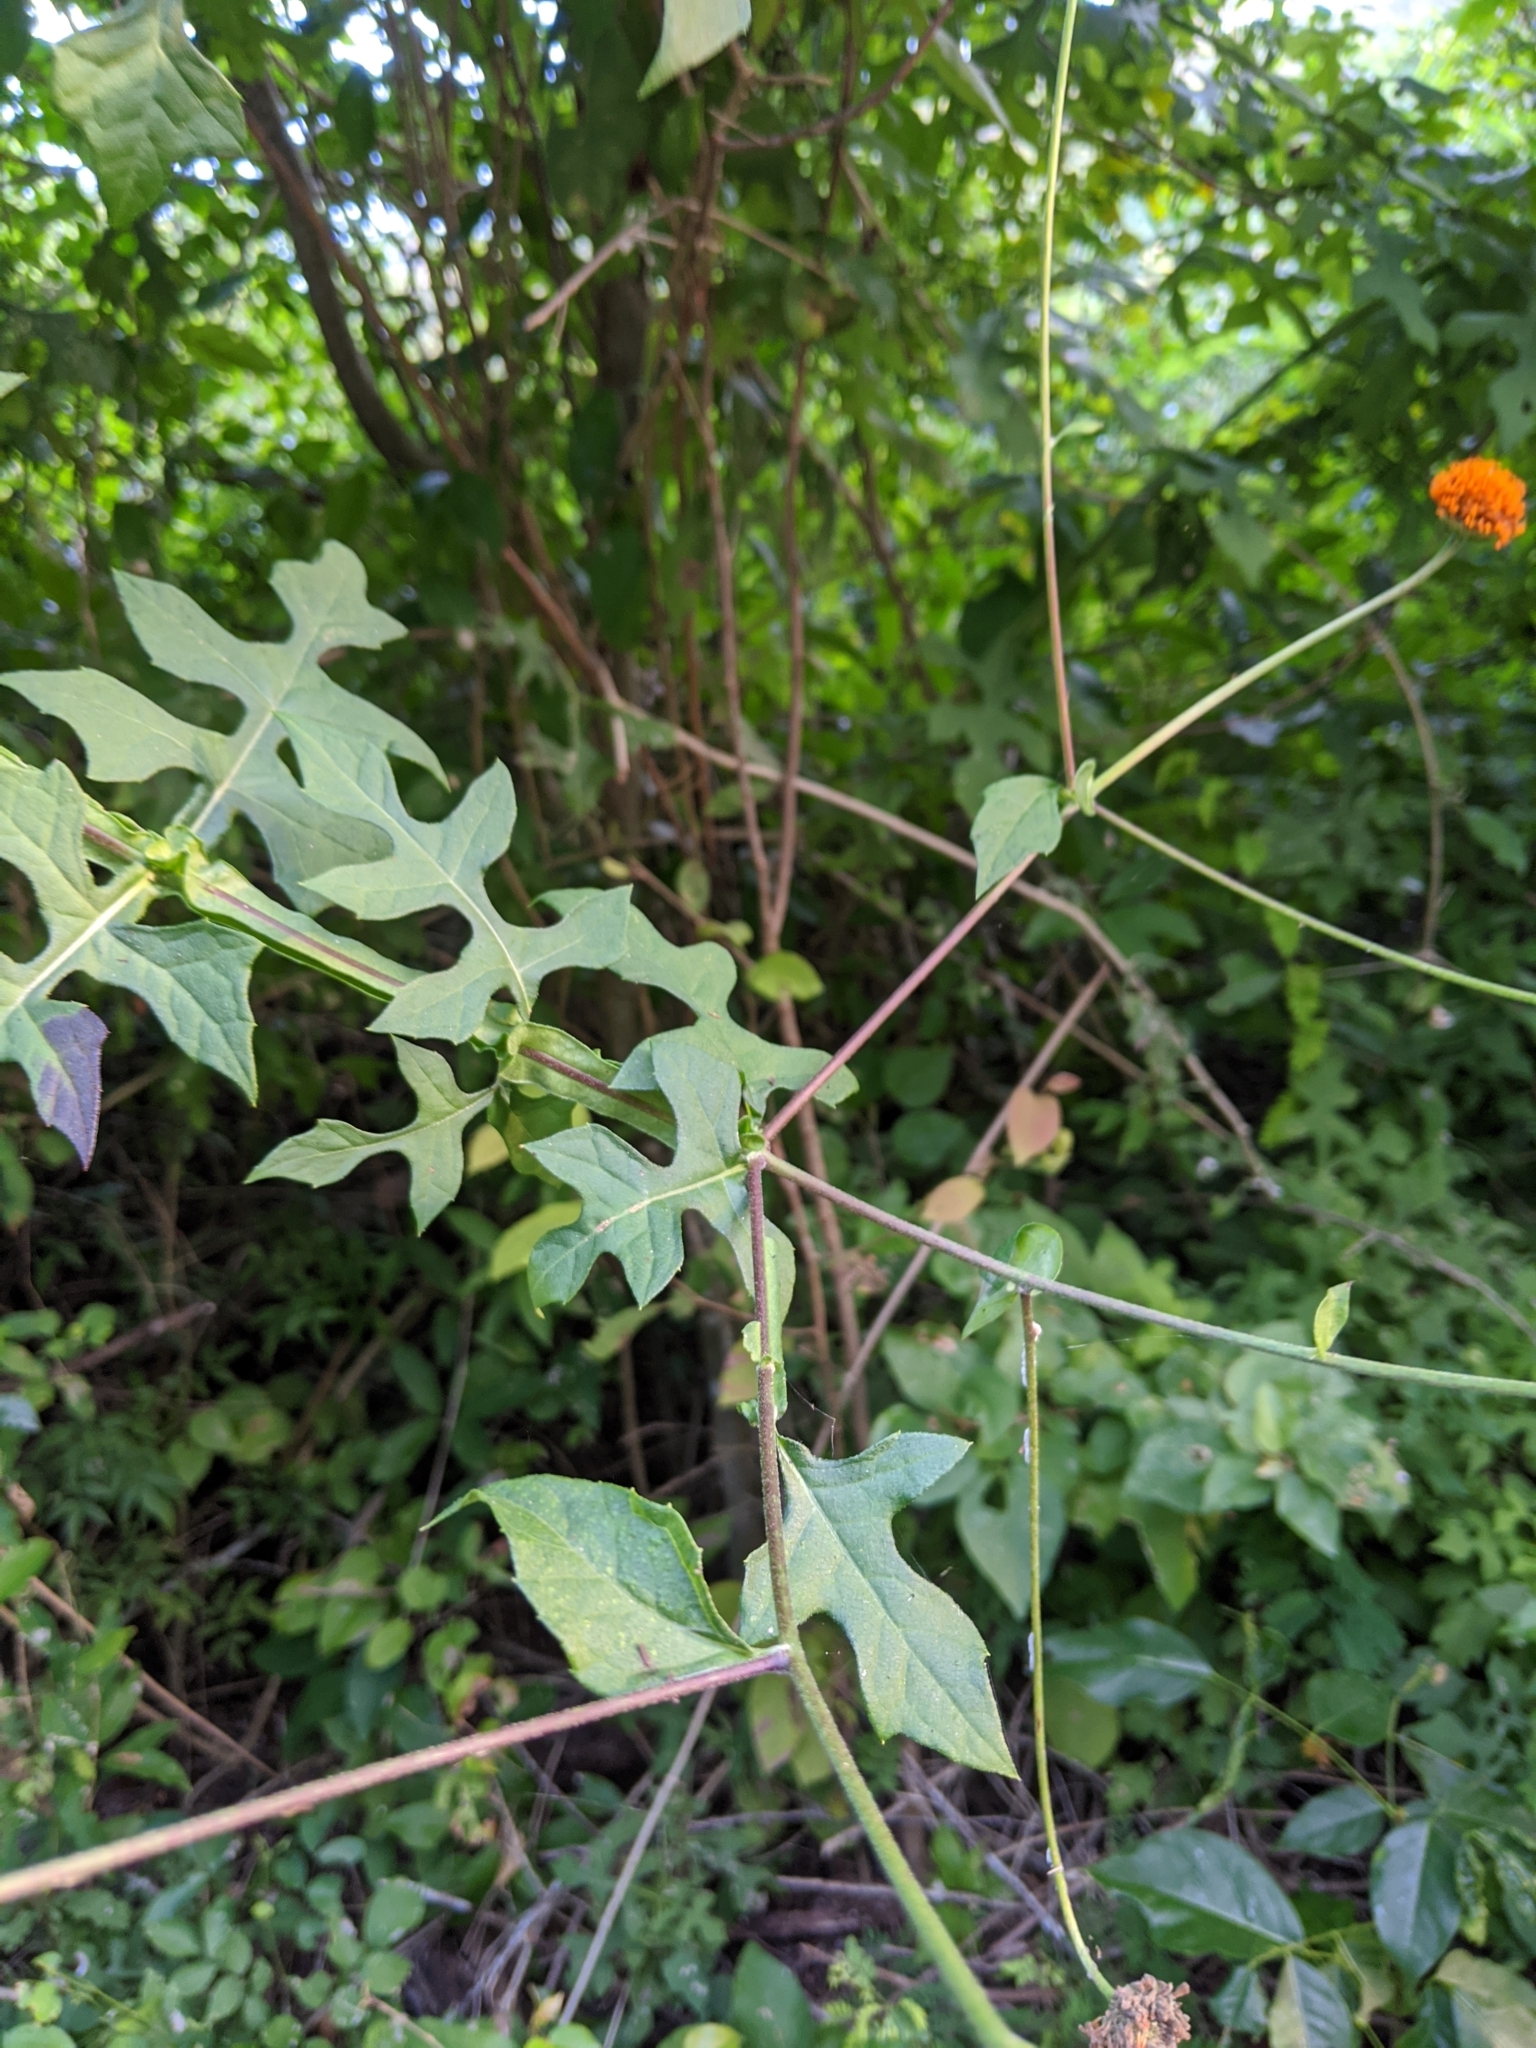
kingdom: Plantae
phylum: Tracheophyta
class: Magnoliopsida
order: Asterales
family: Asteraceae
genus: Verbesina
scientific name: Verbesina lottiana
